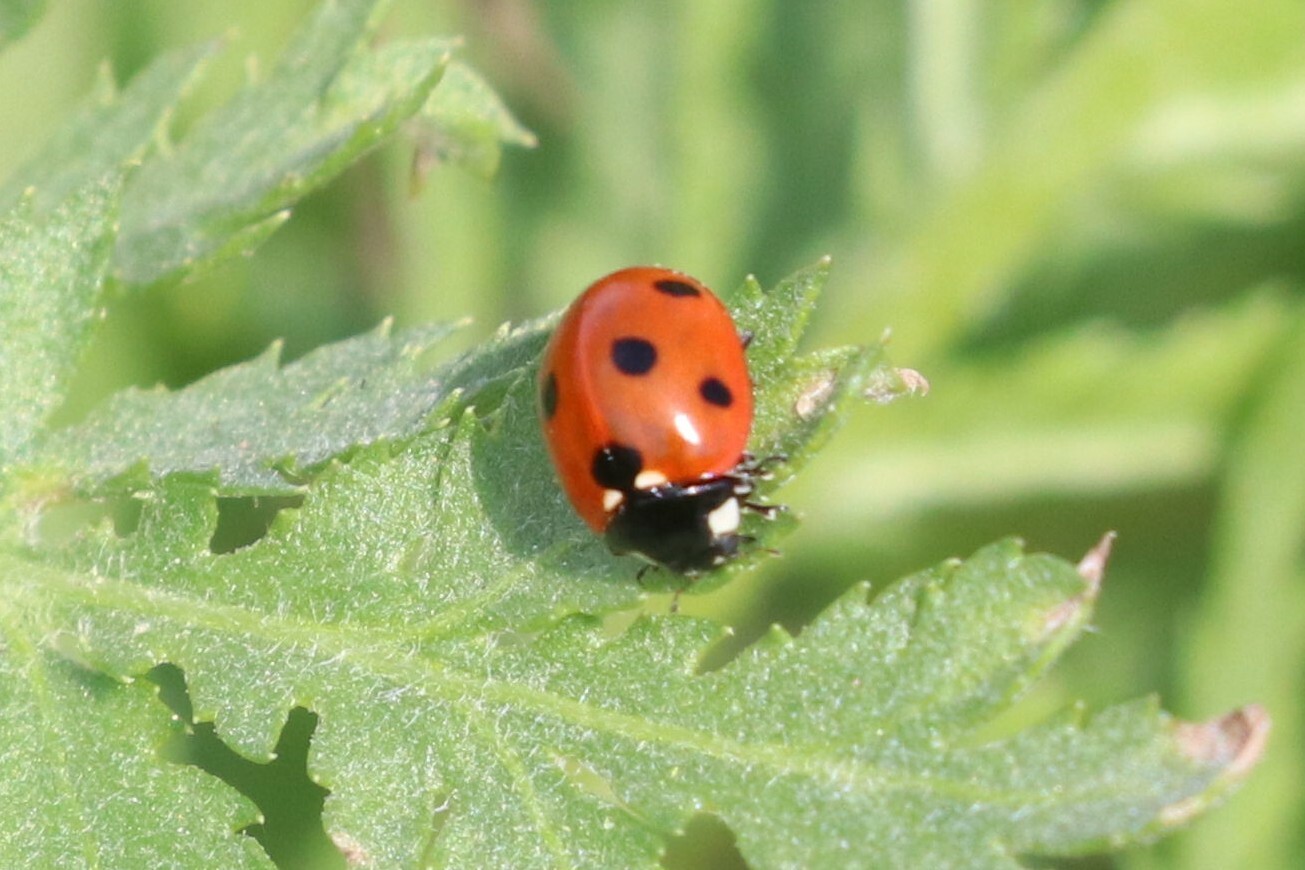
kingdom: Animalia
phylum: Arthropoda
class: Insecta
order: Coleoptera
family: Coccinellidae
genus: Coccinella
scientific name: Coccinella septempunctata
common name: Sevenspotted lady beetle
